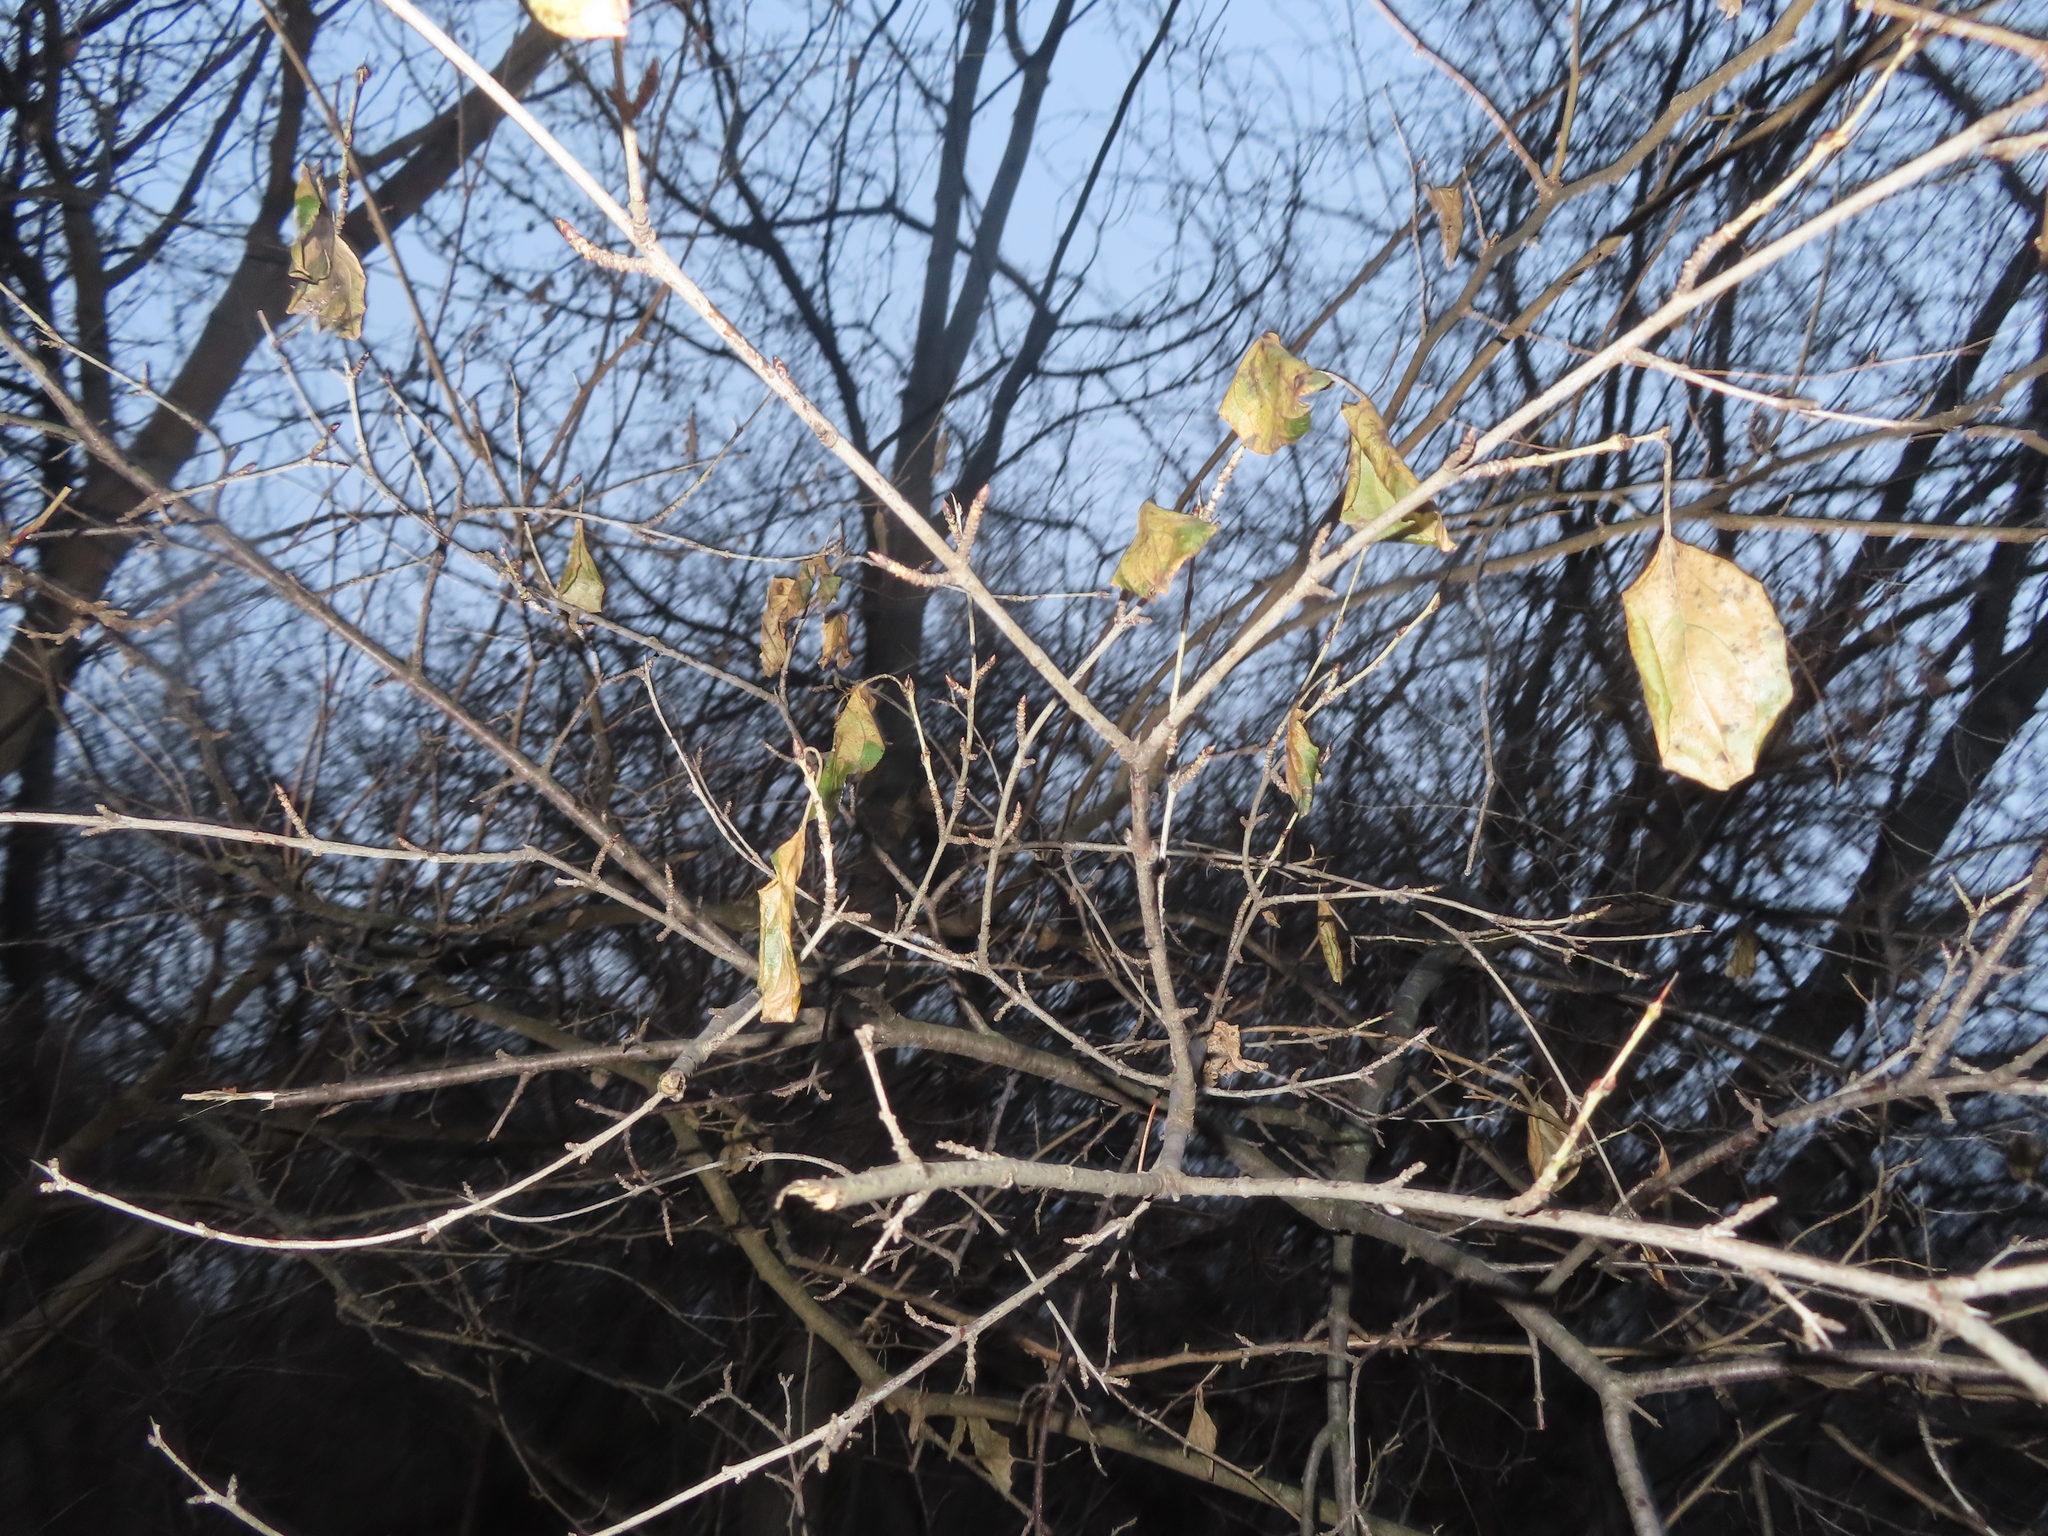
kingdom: Plantae
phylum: Tracheophyta
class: Magnoliopsida
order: Rosales
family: Rhamnaceae
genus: Rhamnus
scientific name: Rhamnus cathartica
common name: Common buckthorn
